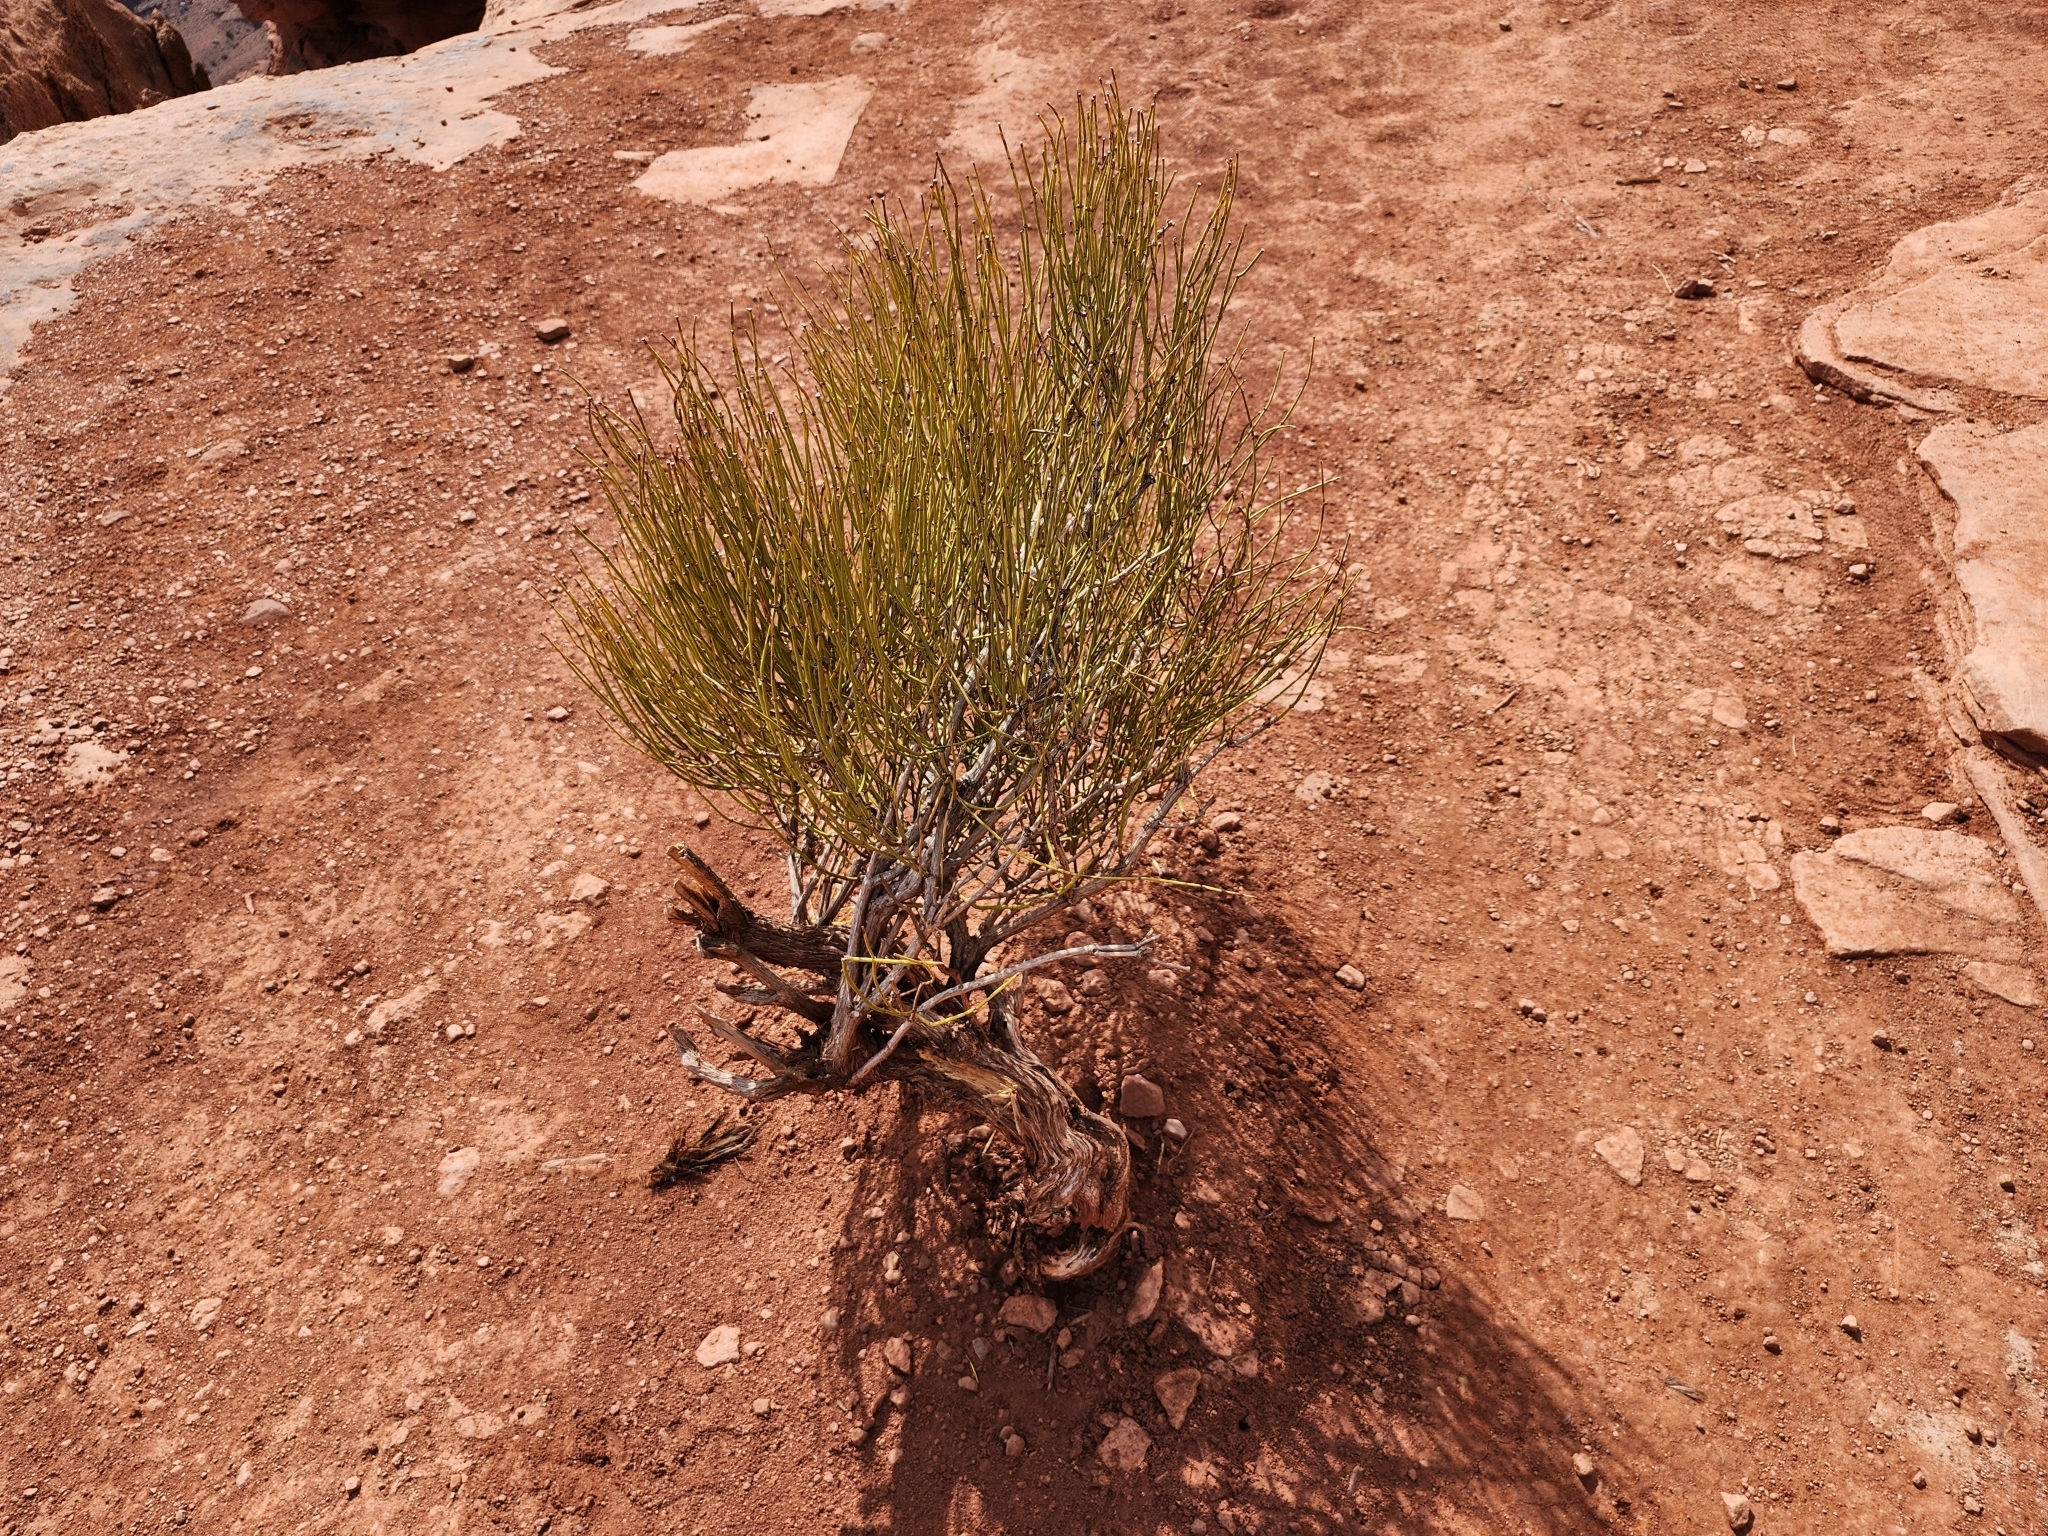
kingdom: Plantae
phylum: Tracheophyta
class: Gnetopsida
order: Ephedrales
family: Ephedraceae
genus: Ephedra
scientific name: Ephedra viridis
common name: Green ephedra
